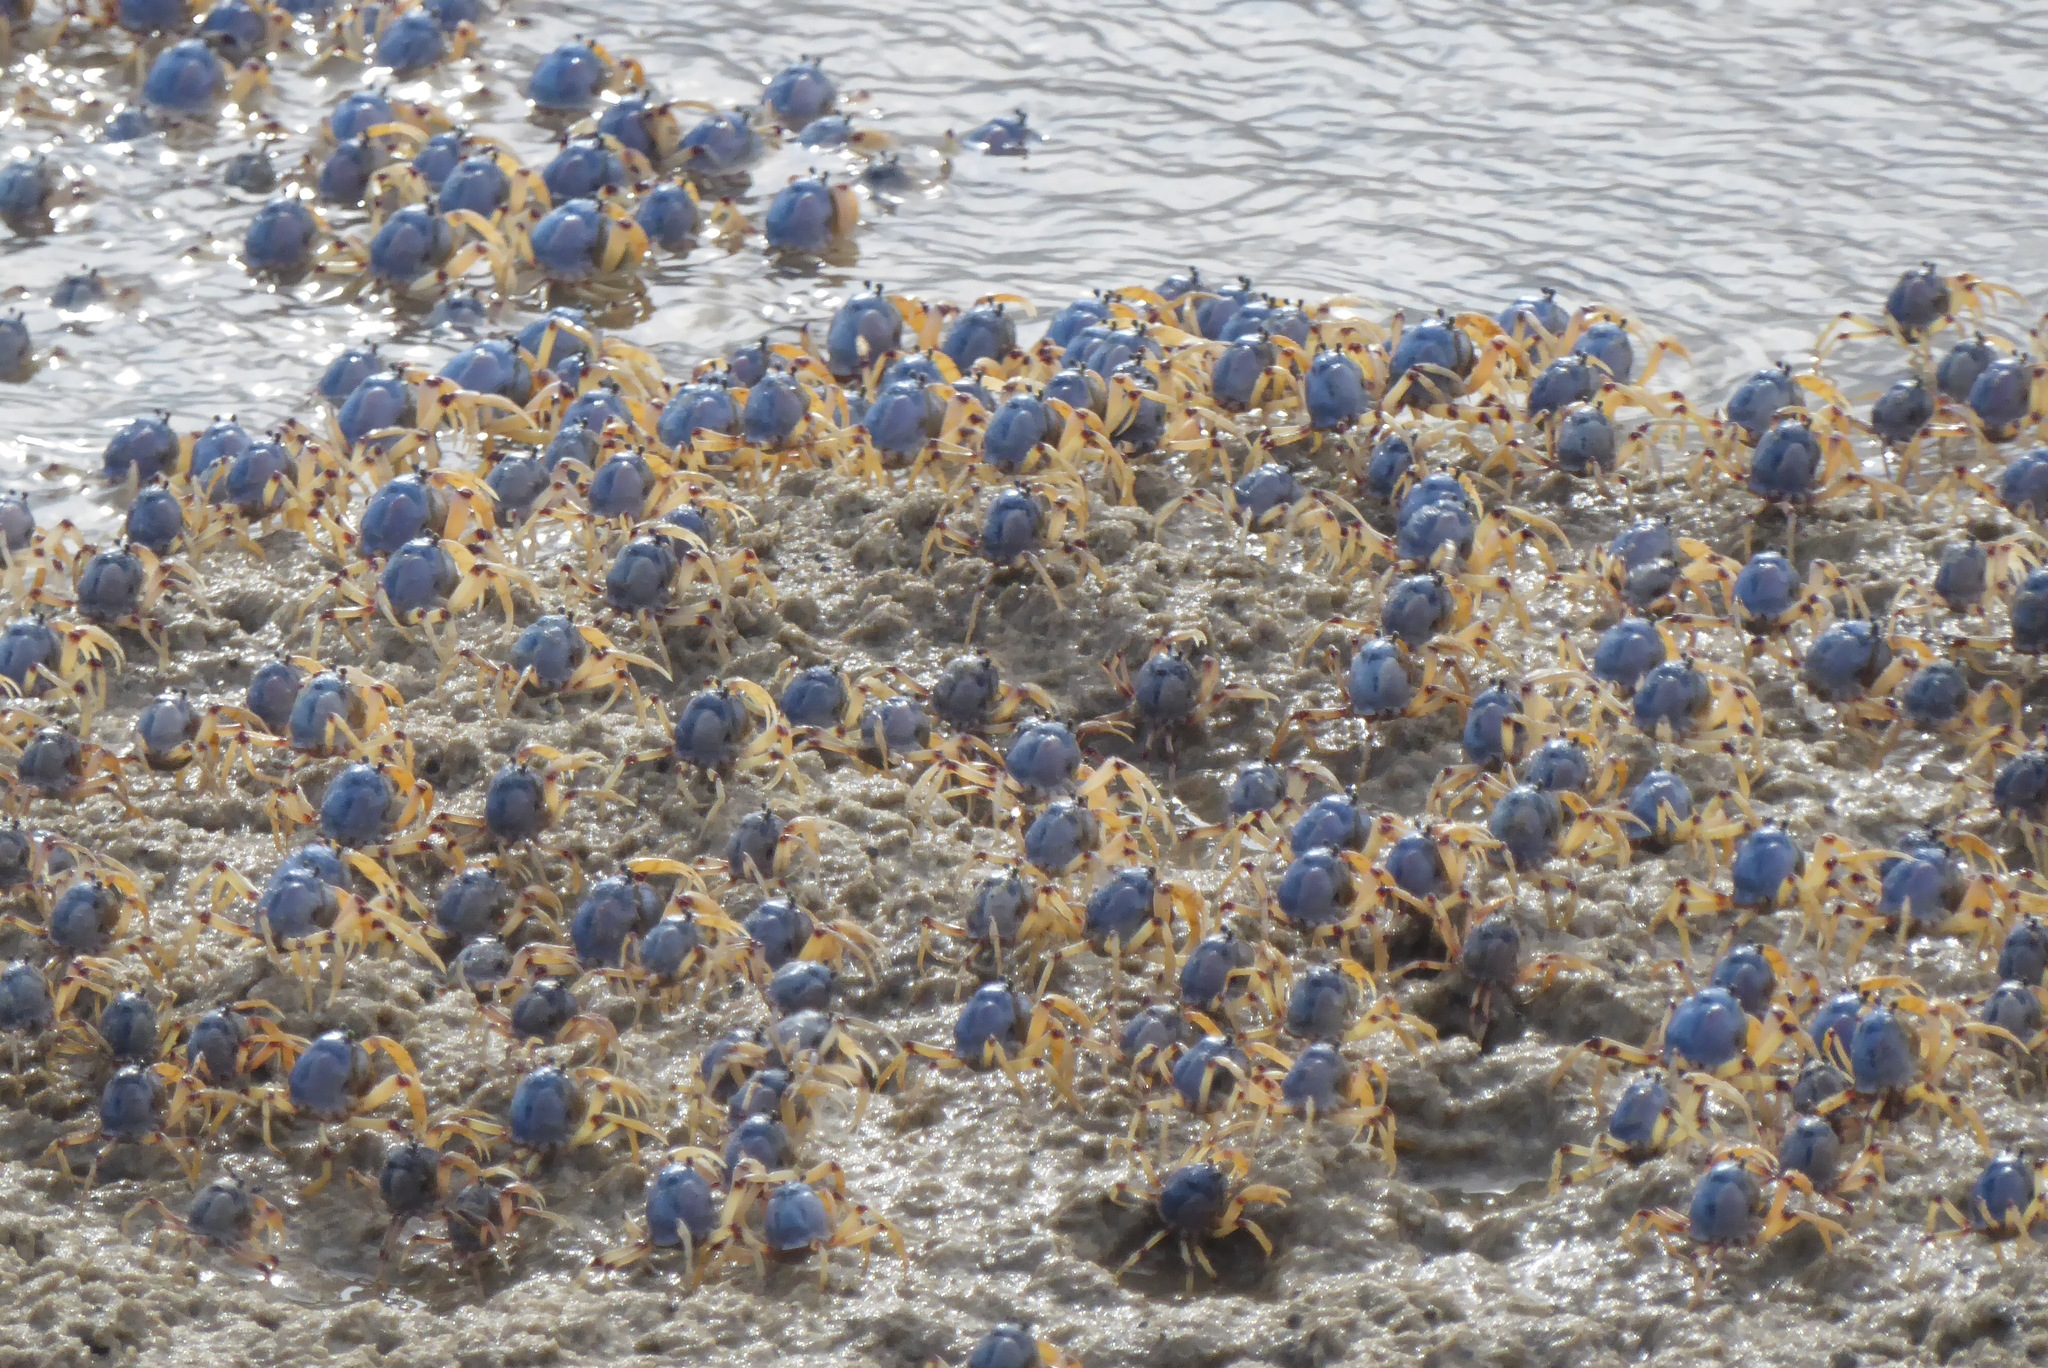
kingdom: Animalia
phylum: Arthropoda
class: Malacostraca
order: Decapoda
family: Mictyridae
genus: Mictyris
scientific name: Mictyris longicarpus
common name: Light-blue soldier crab
